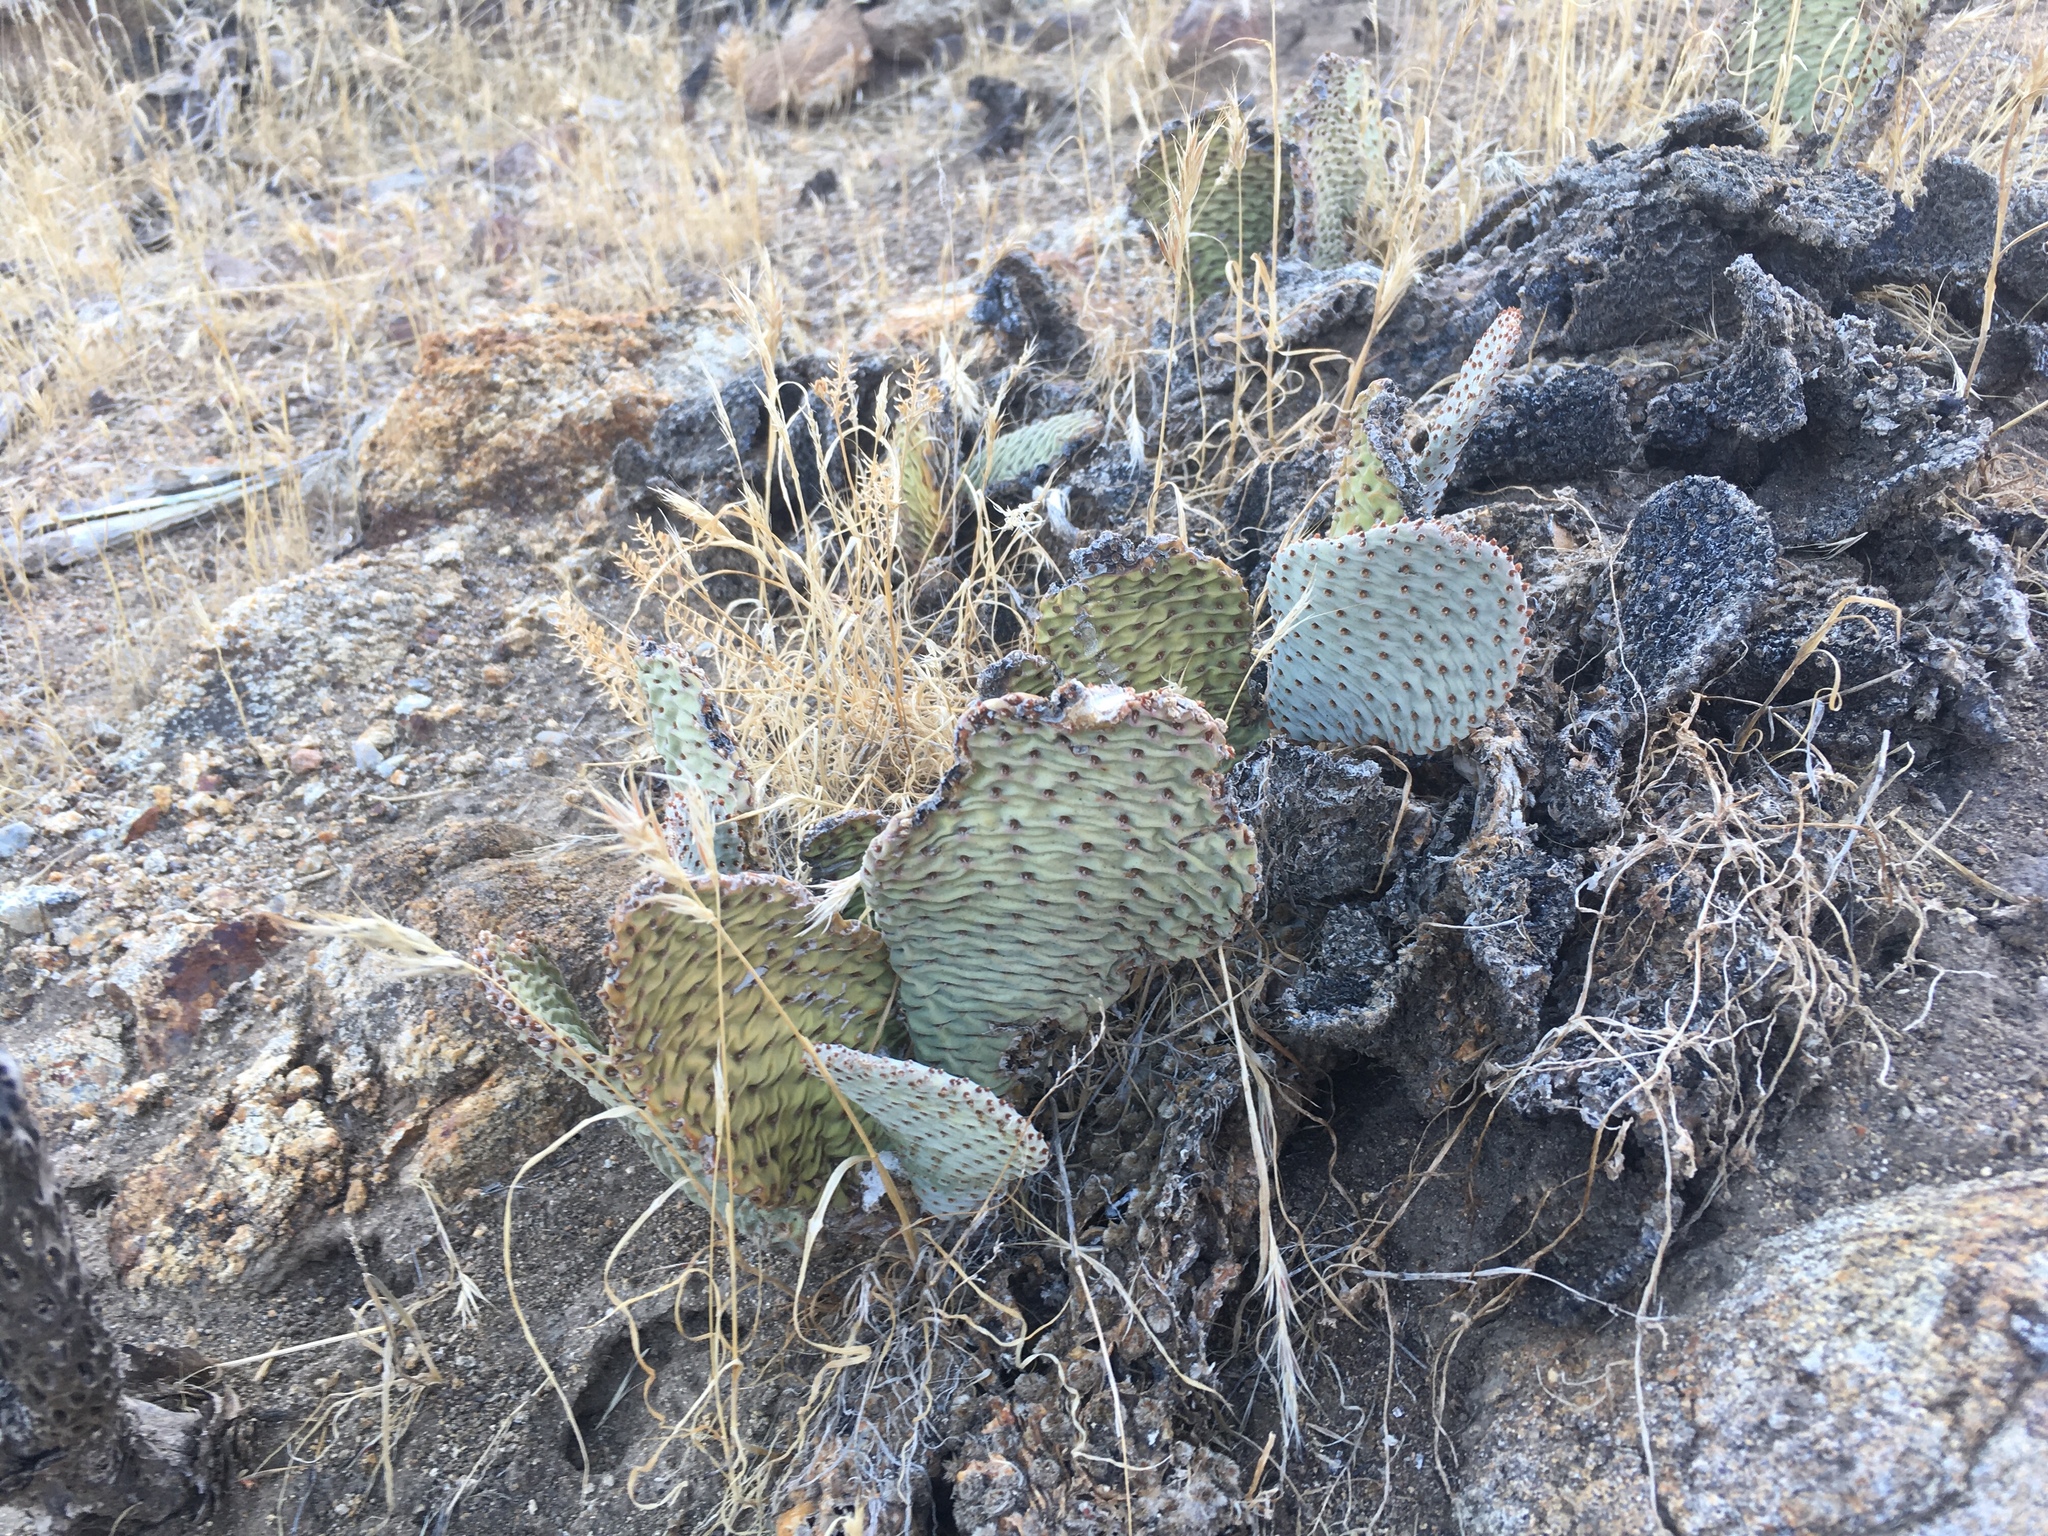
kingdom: Plantae
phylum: Tracheophyta
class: Magnoliopsida
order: Caryophyllales
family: Cactaceae
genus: Opuntia
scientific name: Opuntia basilaris
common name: Beavertail prickly-pear
